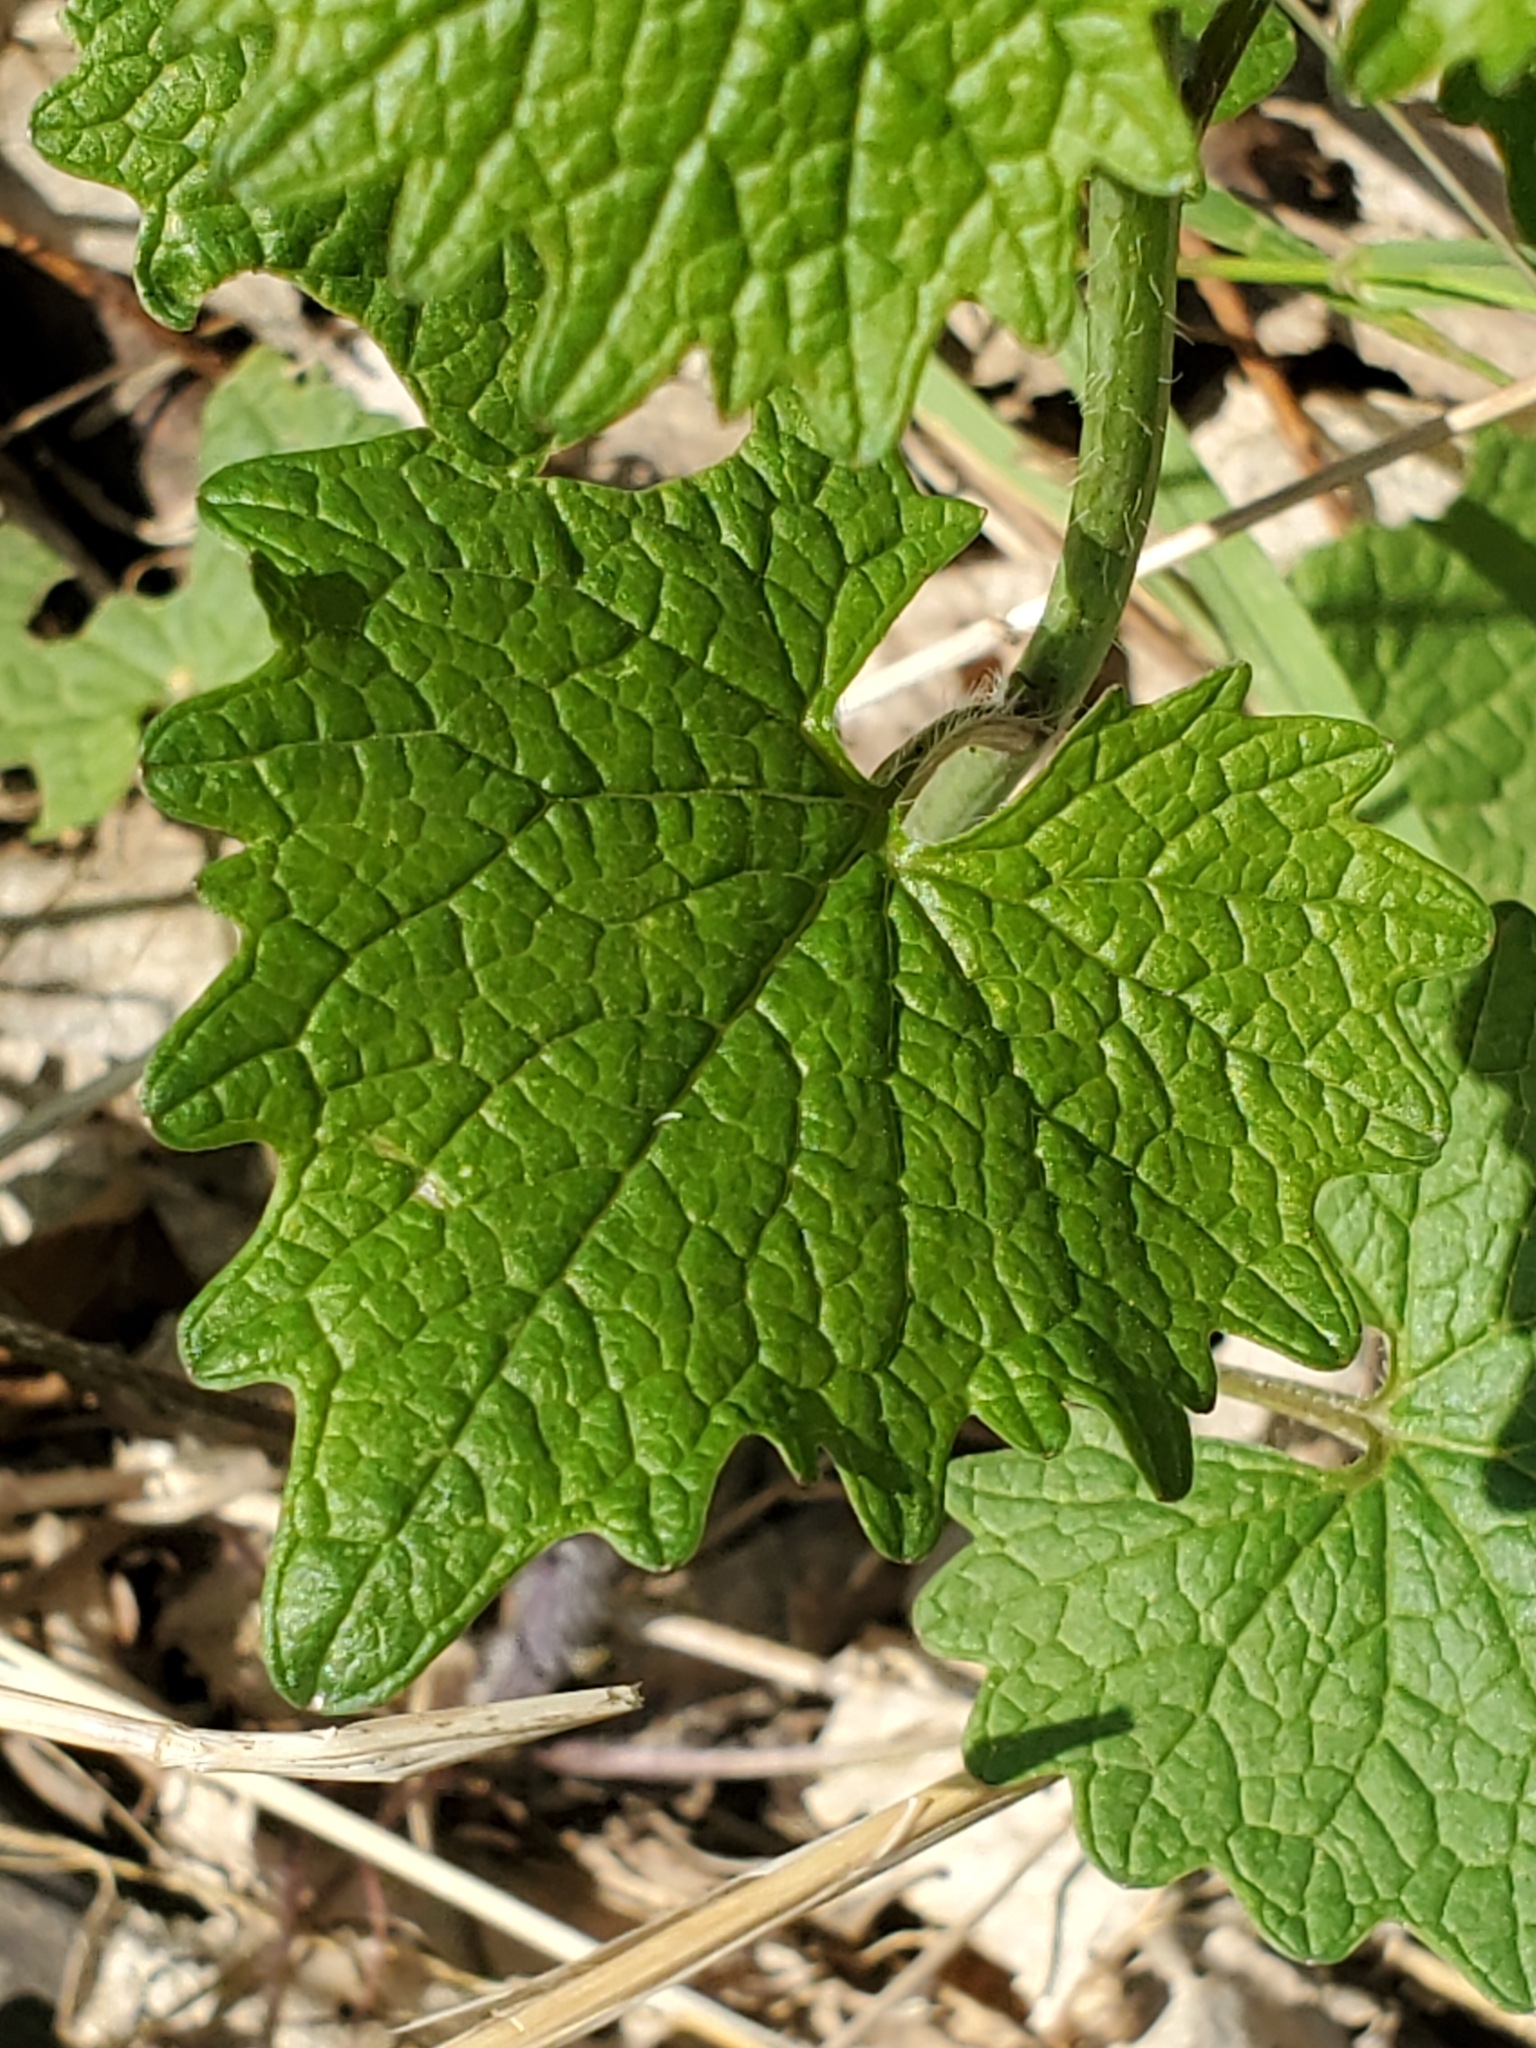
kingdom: Plantae
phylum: Tracheophyta
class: Magnoliopsida
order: Brassicales
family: Brassicaceae
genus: Alliaria
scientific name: Alliaria petiolata
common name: Garlic mustard
